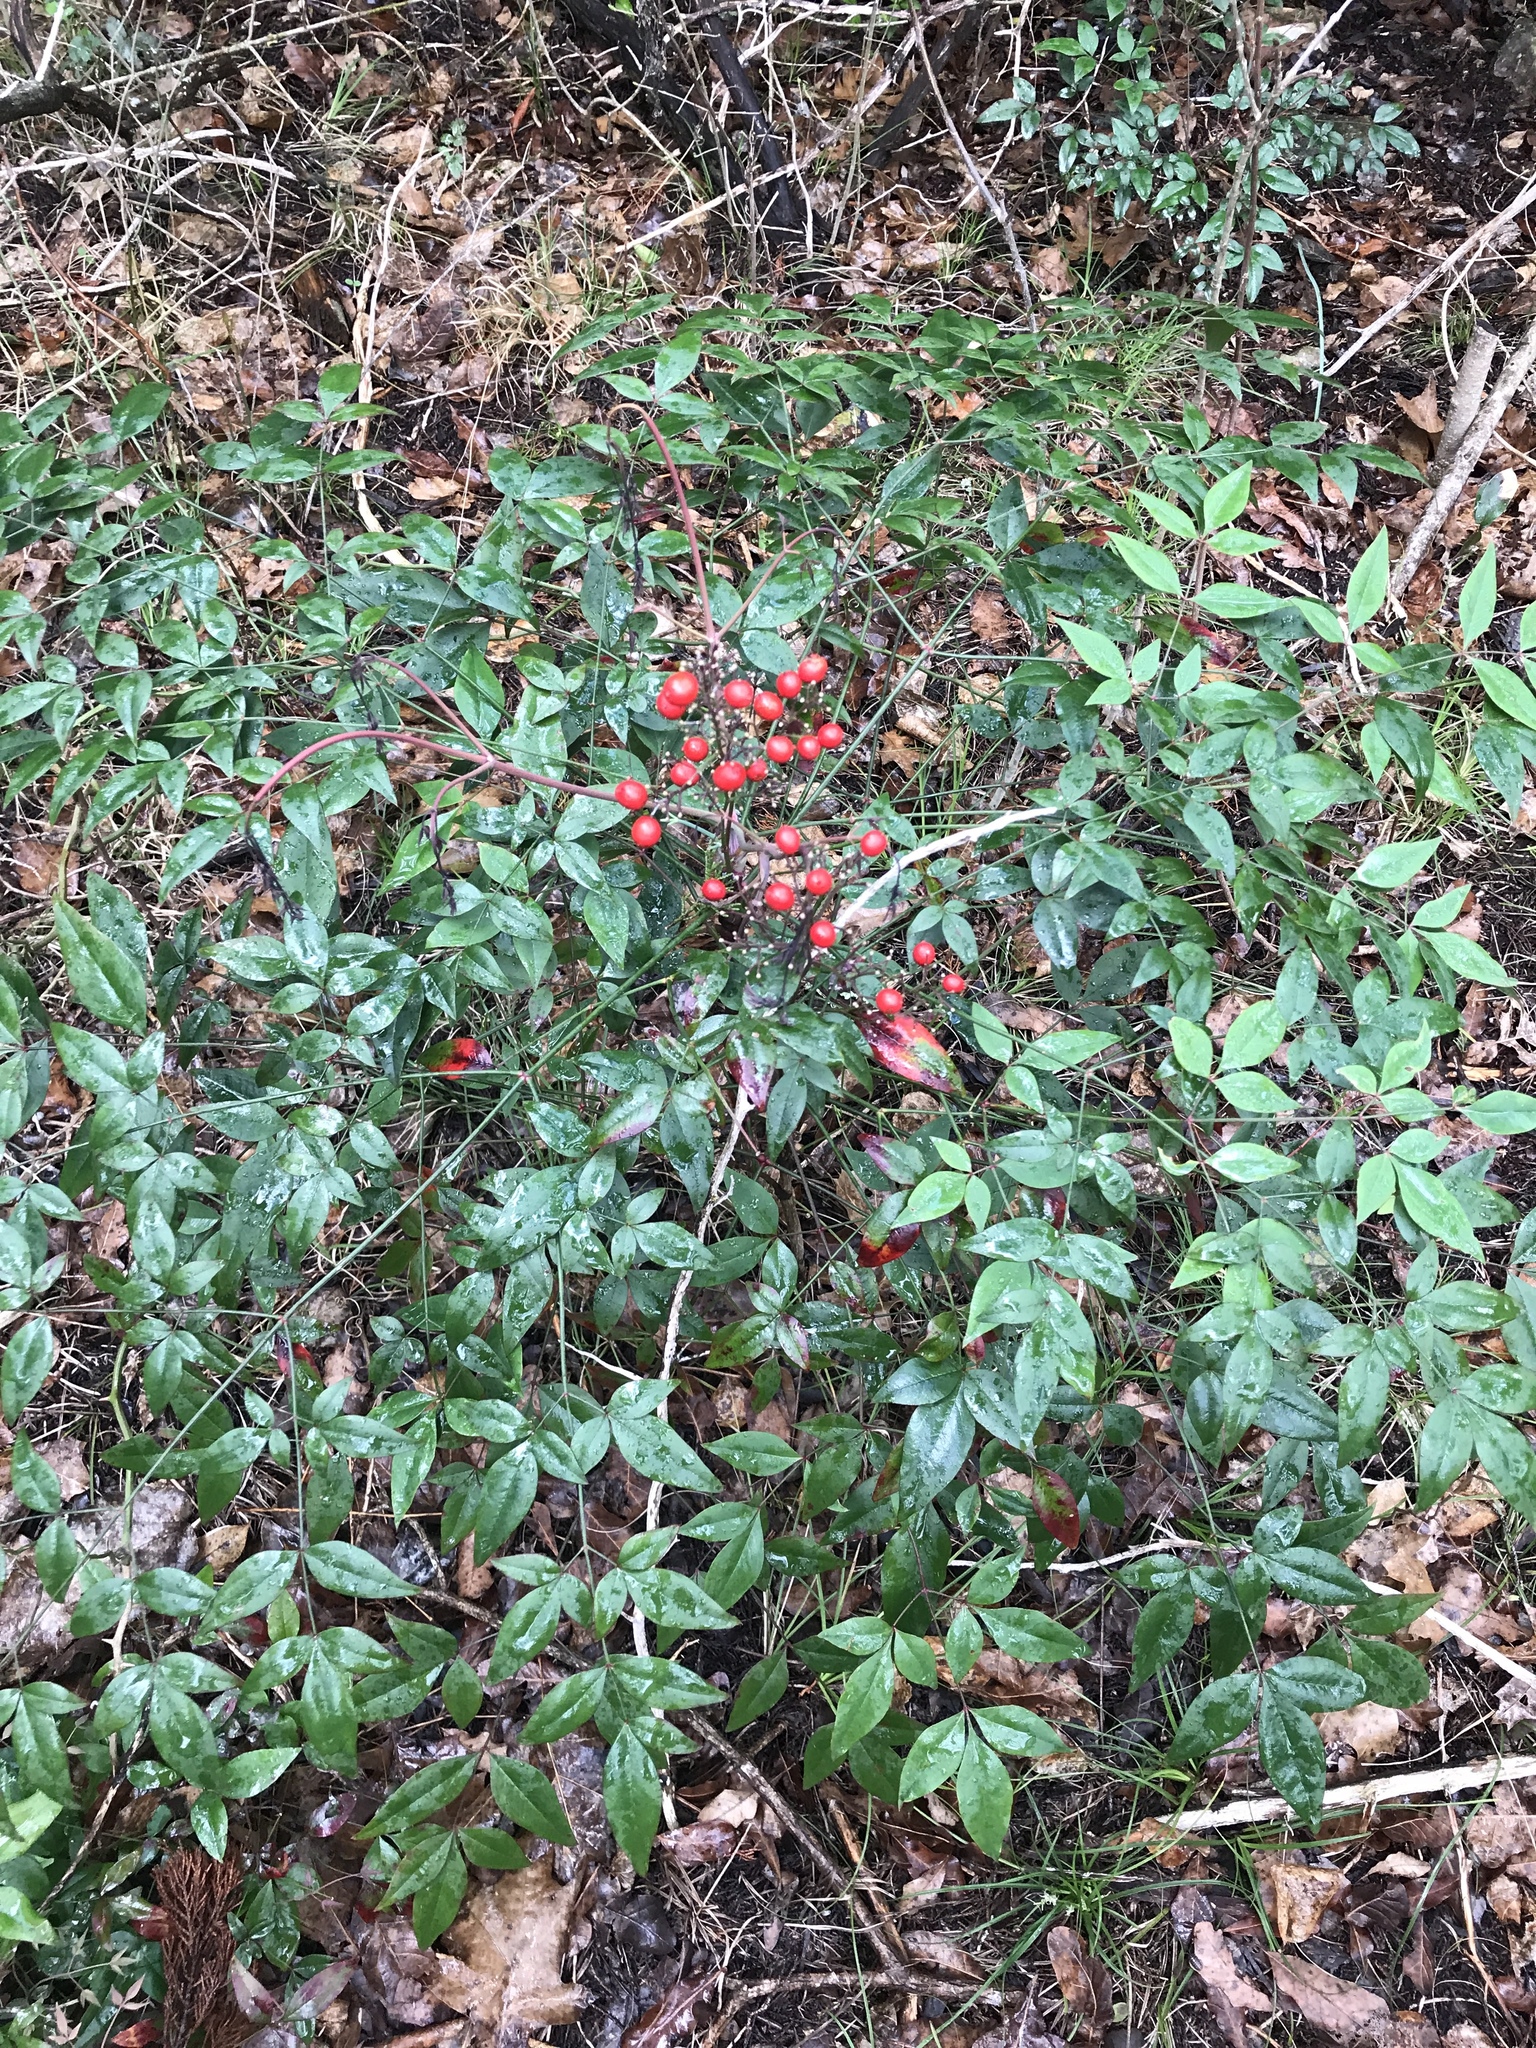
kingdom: Plantae
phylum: Tracheophyta
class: Magnoliopsida
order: Ranunculales
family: Berberidaceae
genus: Nandina
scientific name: Nandina domestica
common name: Sacred bamboo
